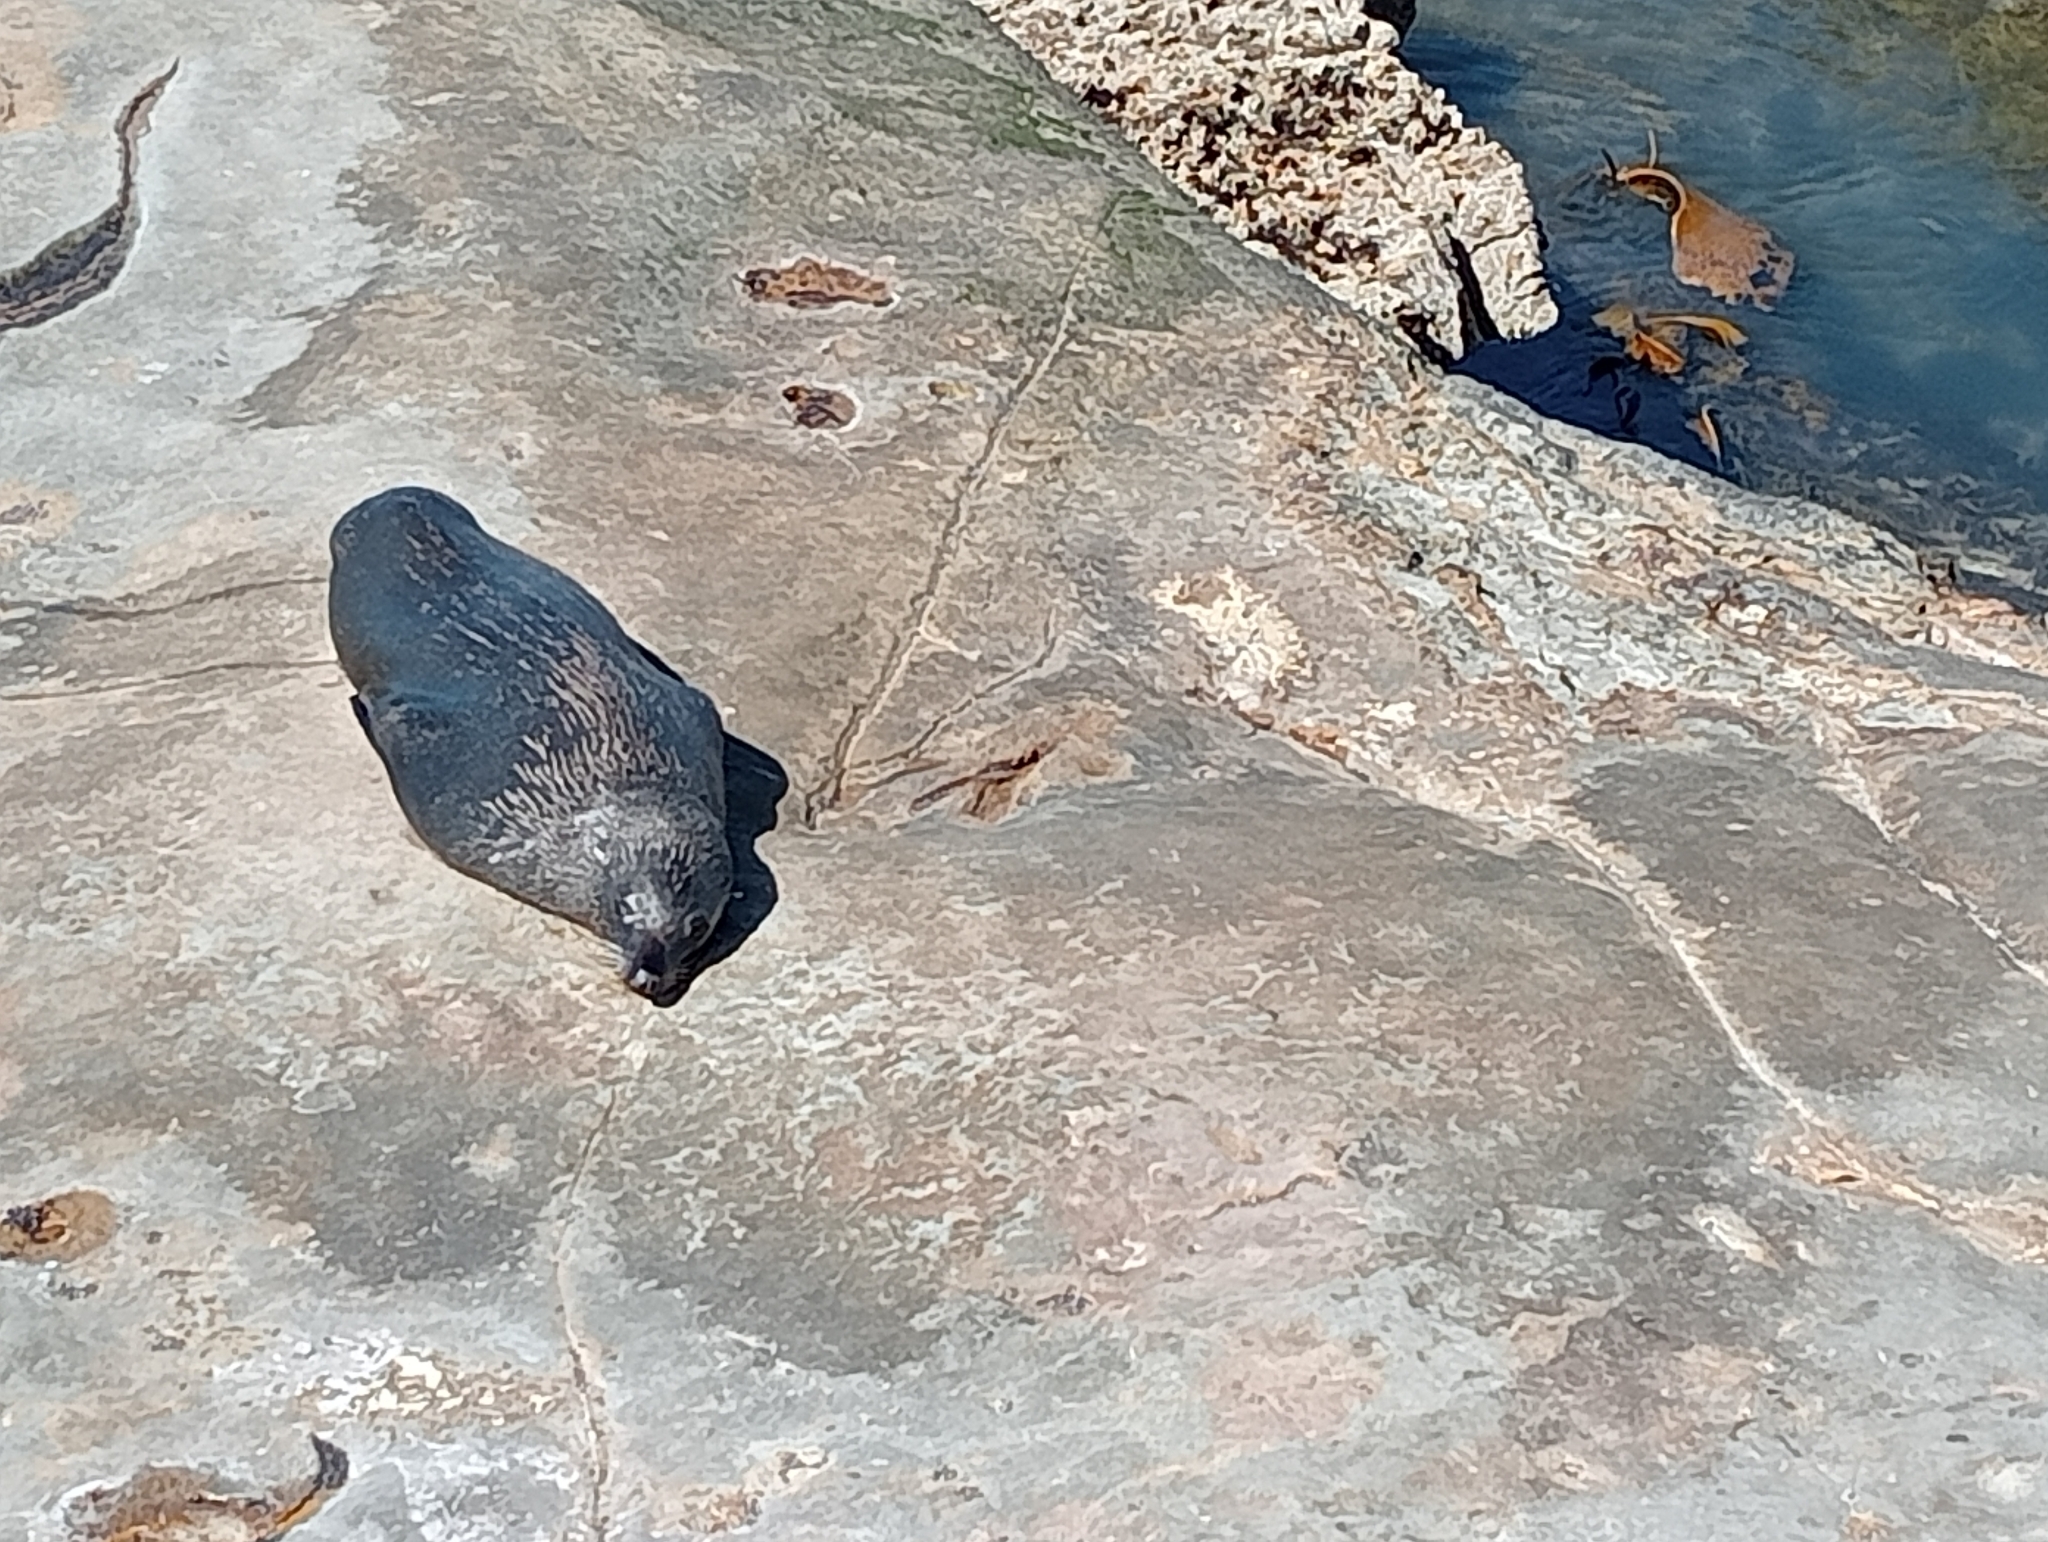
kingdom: Animalia
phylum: Chordata
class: Mammalia
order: Carnivora
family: Otariidae
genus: Arctocephalus
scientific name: Arctocephalus forsteri
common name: New zealand fur seal
